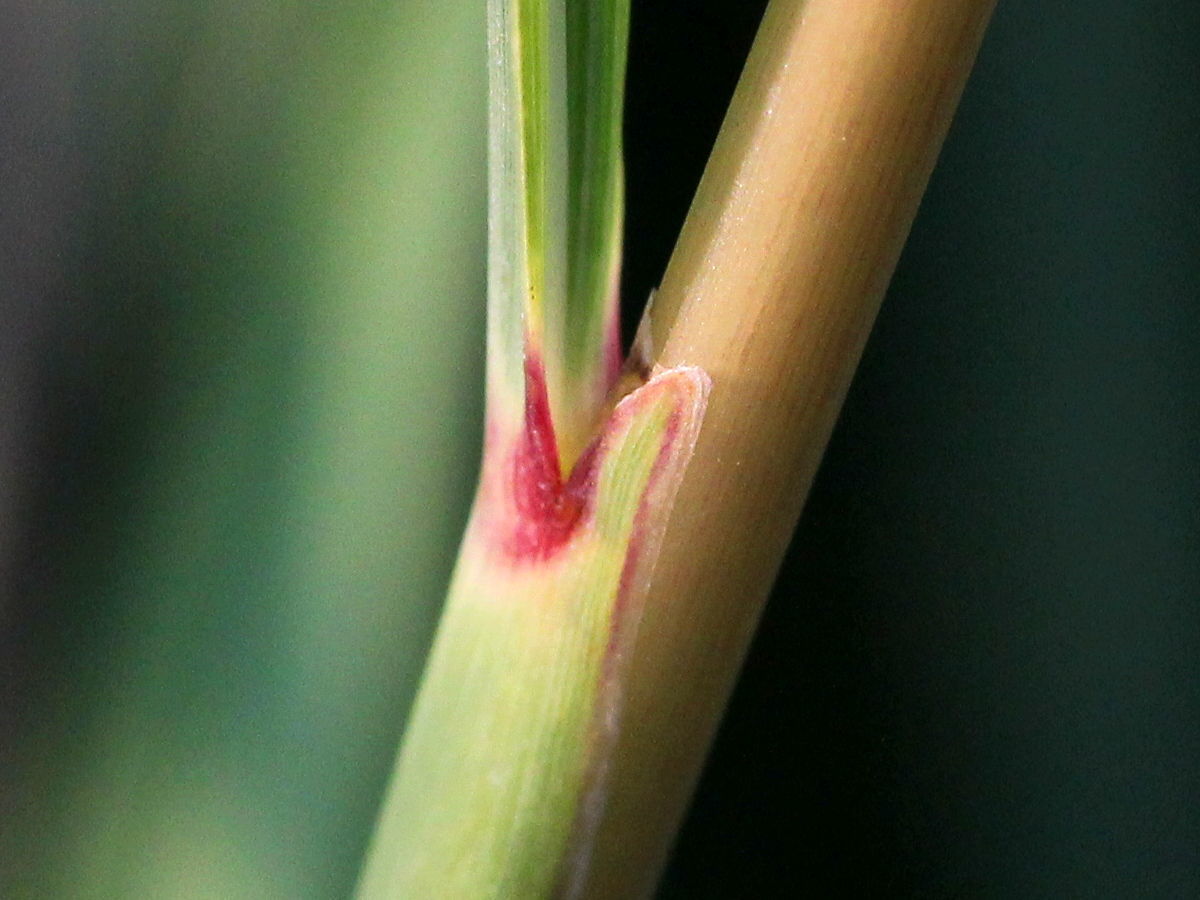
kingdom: Plantae
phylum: Tracheophyta
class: Liliopsida
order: Poales
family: Poaceae
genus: Sorghastrum
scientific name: Sorghastrum nutans
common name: Indian grass
